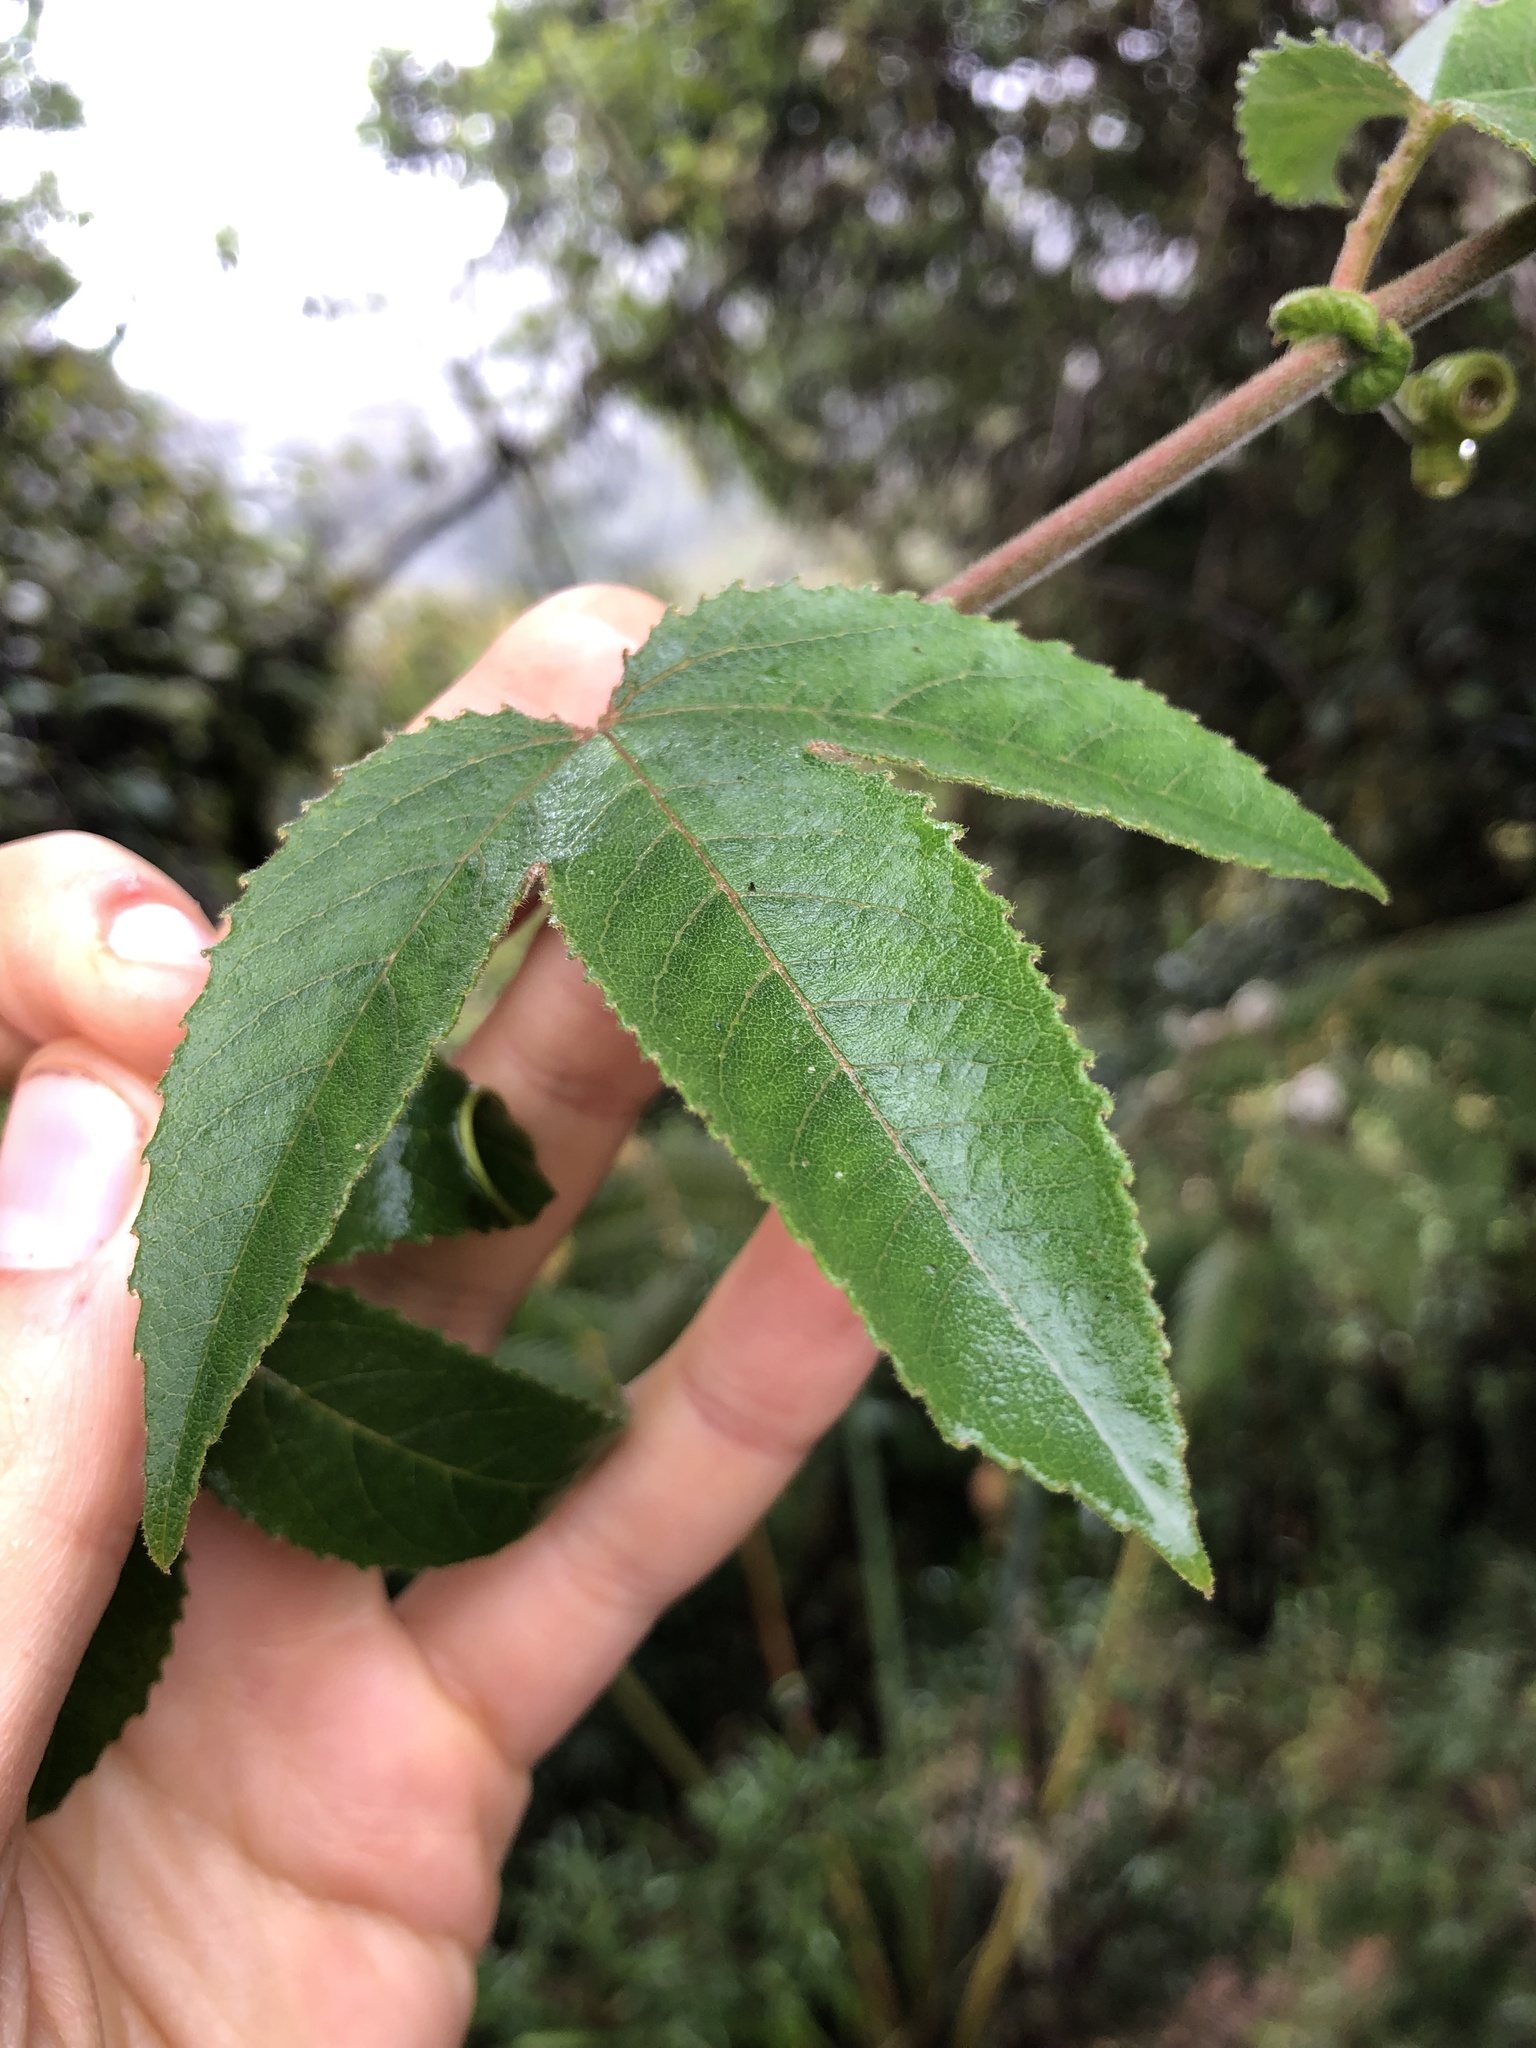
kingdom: Plantae
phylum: Tracheophyta
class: Magnoliopsida
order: Malpighiales
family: Passifloraceae
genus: Passiflora
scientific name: Passiflora tripartita
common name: Banana poka
